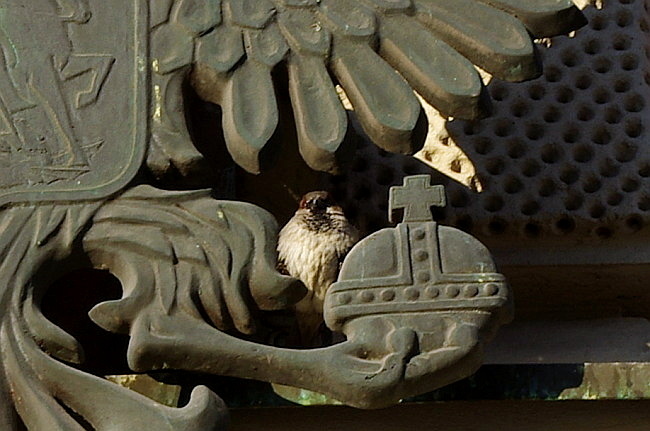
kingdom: Animalia
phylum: Chordata
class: Aves
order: Passeriformes
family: Passeridae
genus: Passer
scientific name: Passer domesticus
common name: House sparrow
